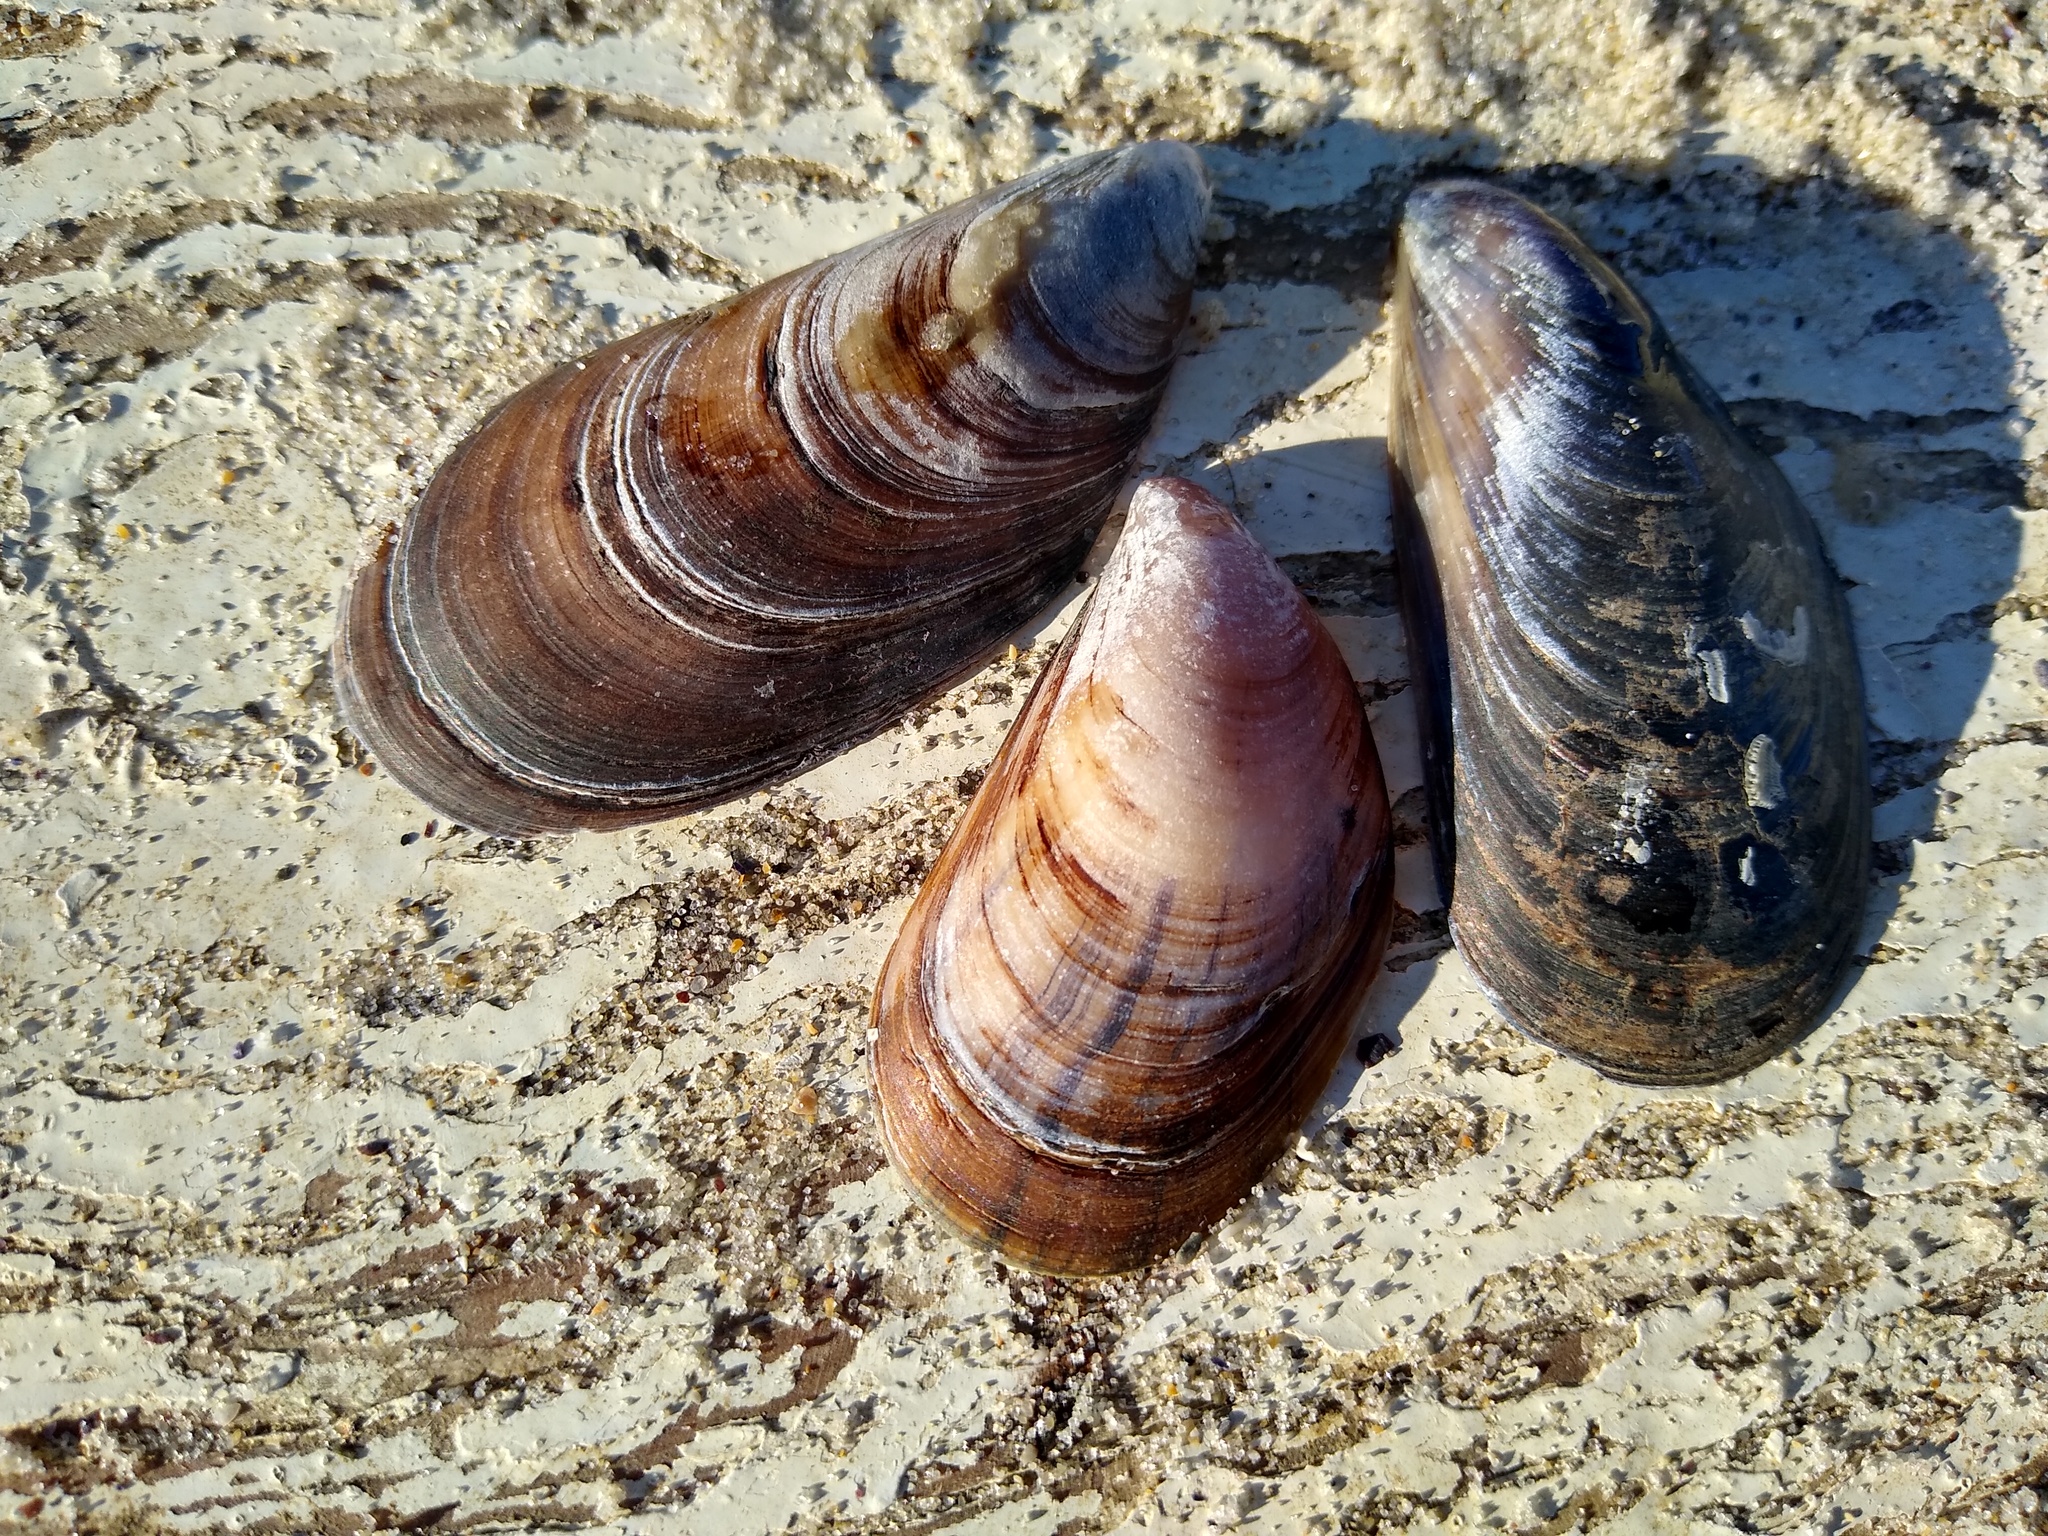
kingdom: Animalia
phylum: Mollusca
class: Bivalvia
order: Mytilida
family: Mytilidae
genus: Mytilus
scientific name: Mytilus galloprovincialis
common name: Mediterranean mussel
